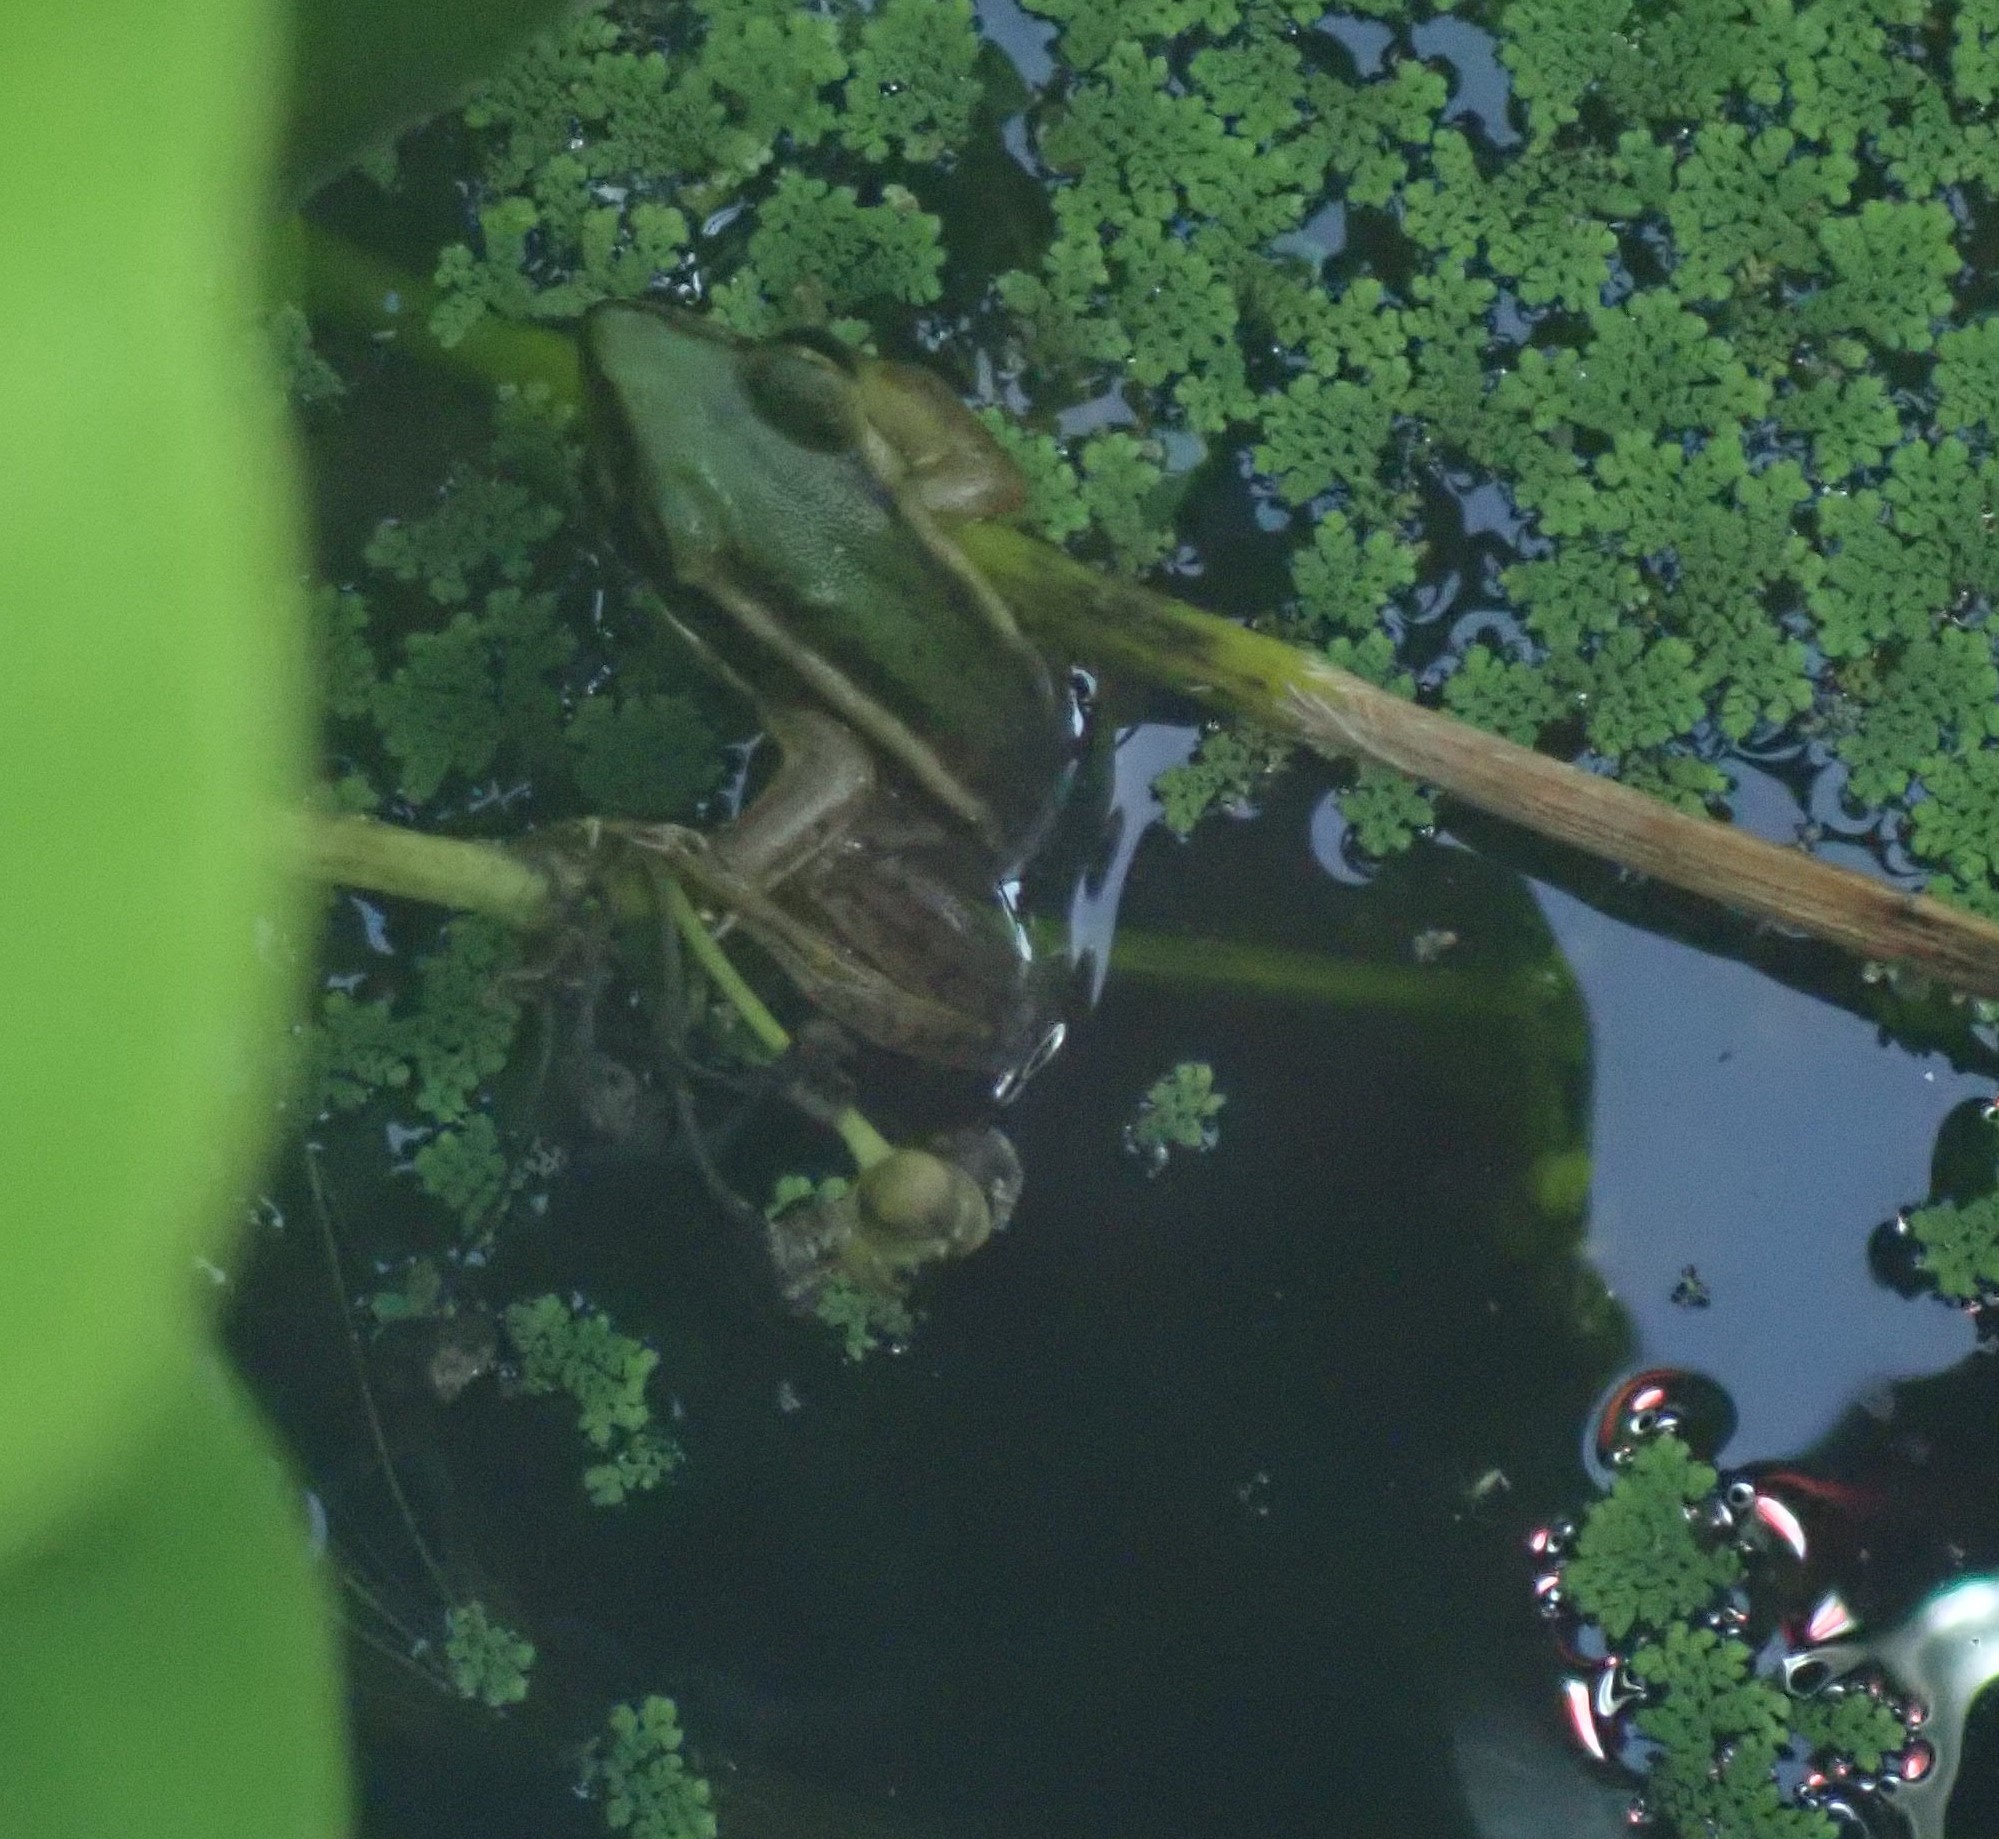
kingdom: Animalia
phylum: Chordata
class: Amphibia
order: Anura
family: Ranidae
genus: Hylarana
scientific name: Hylarana erythraea
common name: Common green frog/green paddy frog/leaf frog
